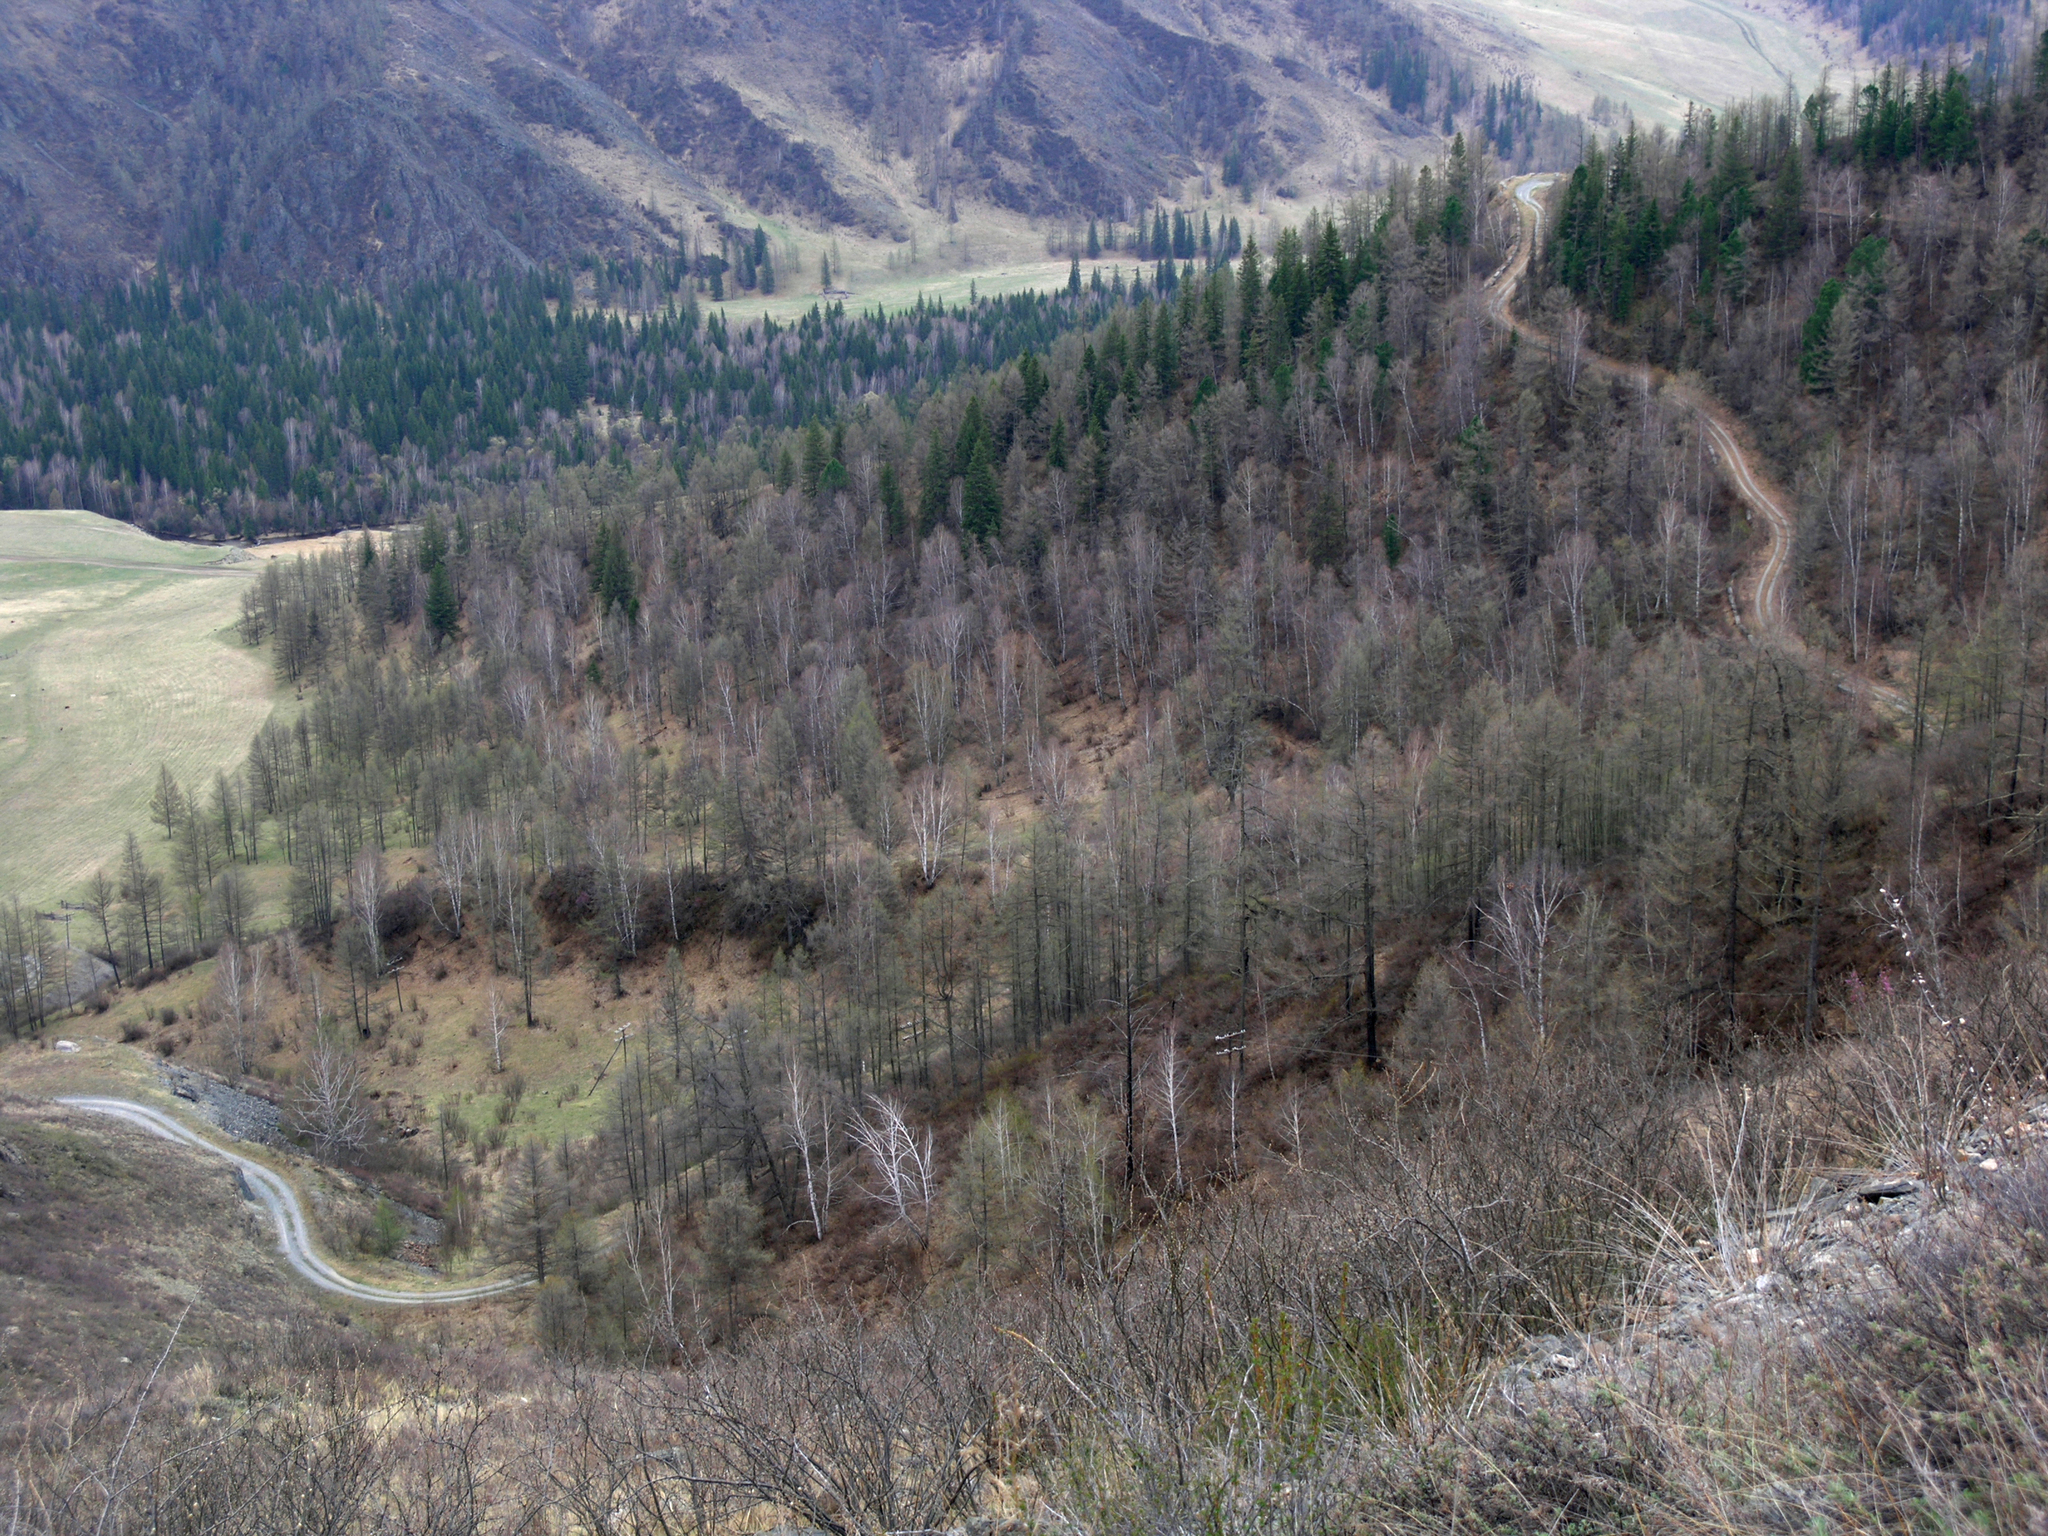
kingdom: Plantae
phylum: Tracheophyta
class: Pinopsida
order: Pinales
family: Pinaceae
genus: Picea
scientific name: Picea obovata
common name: Siberian spruce
